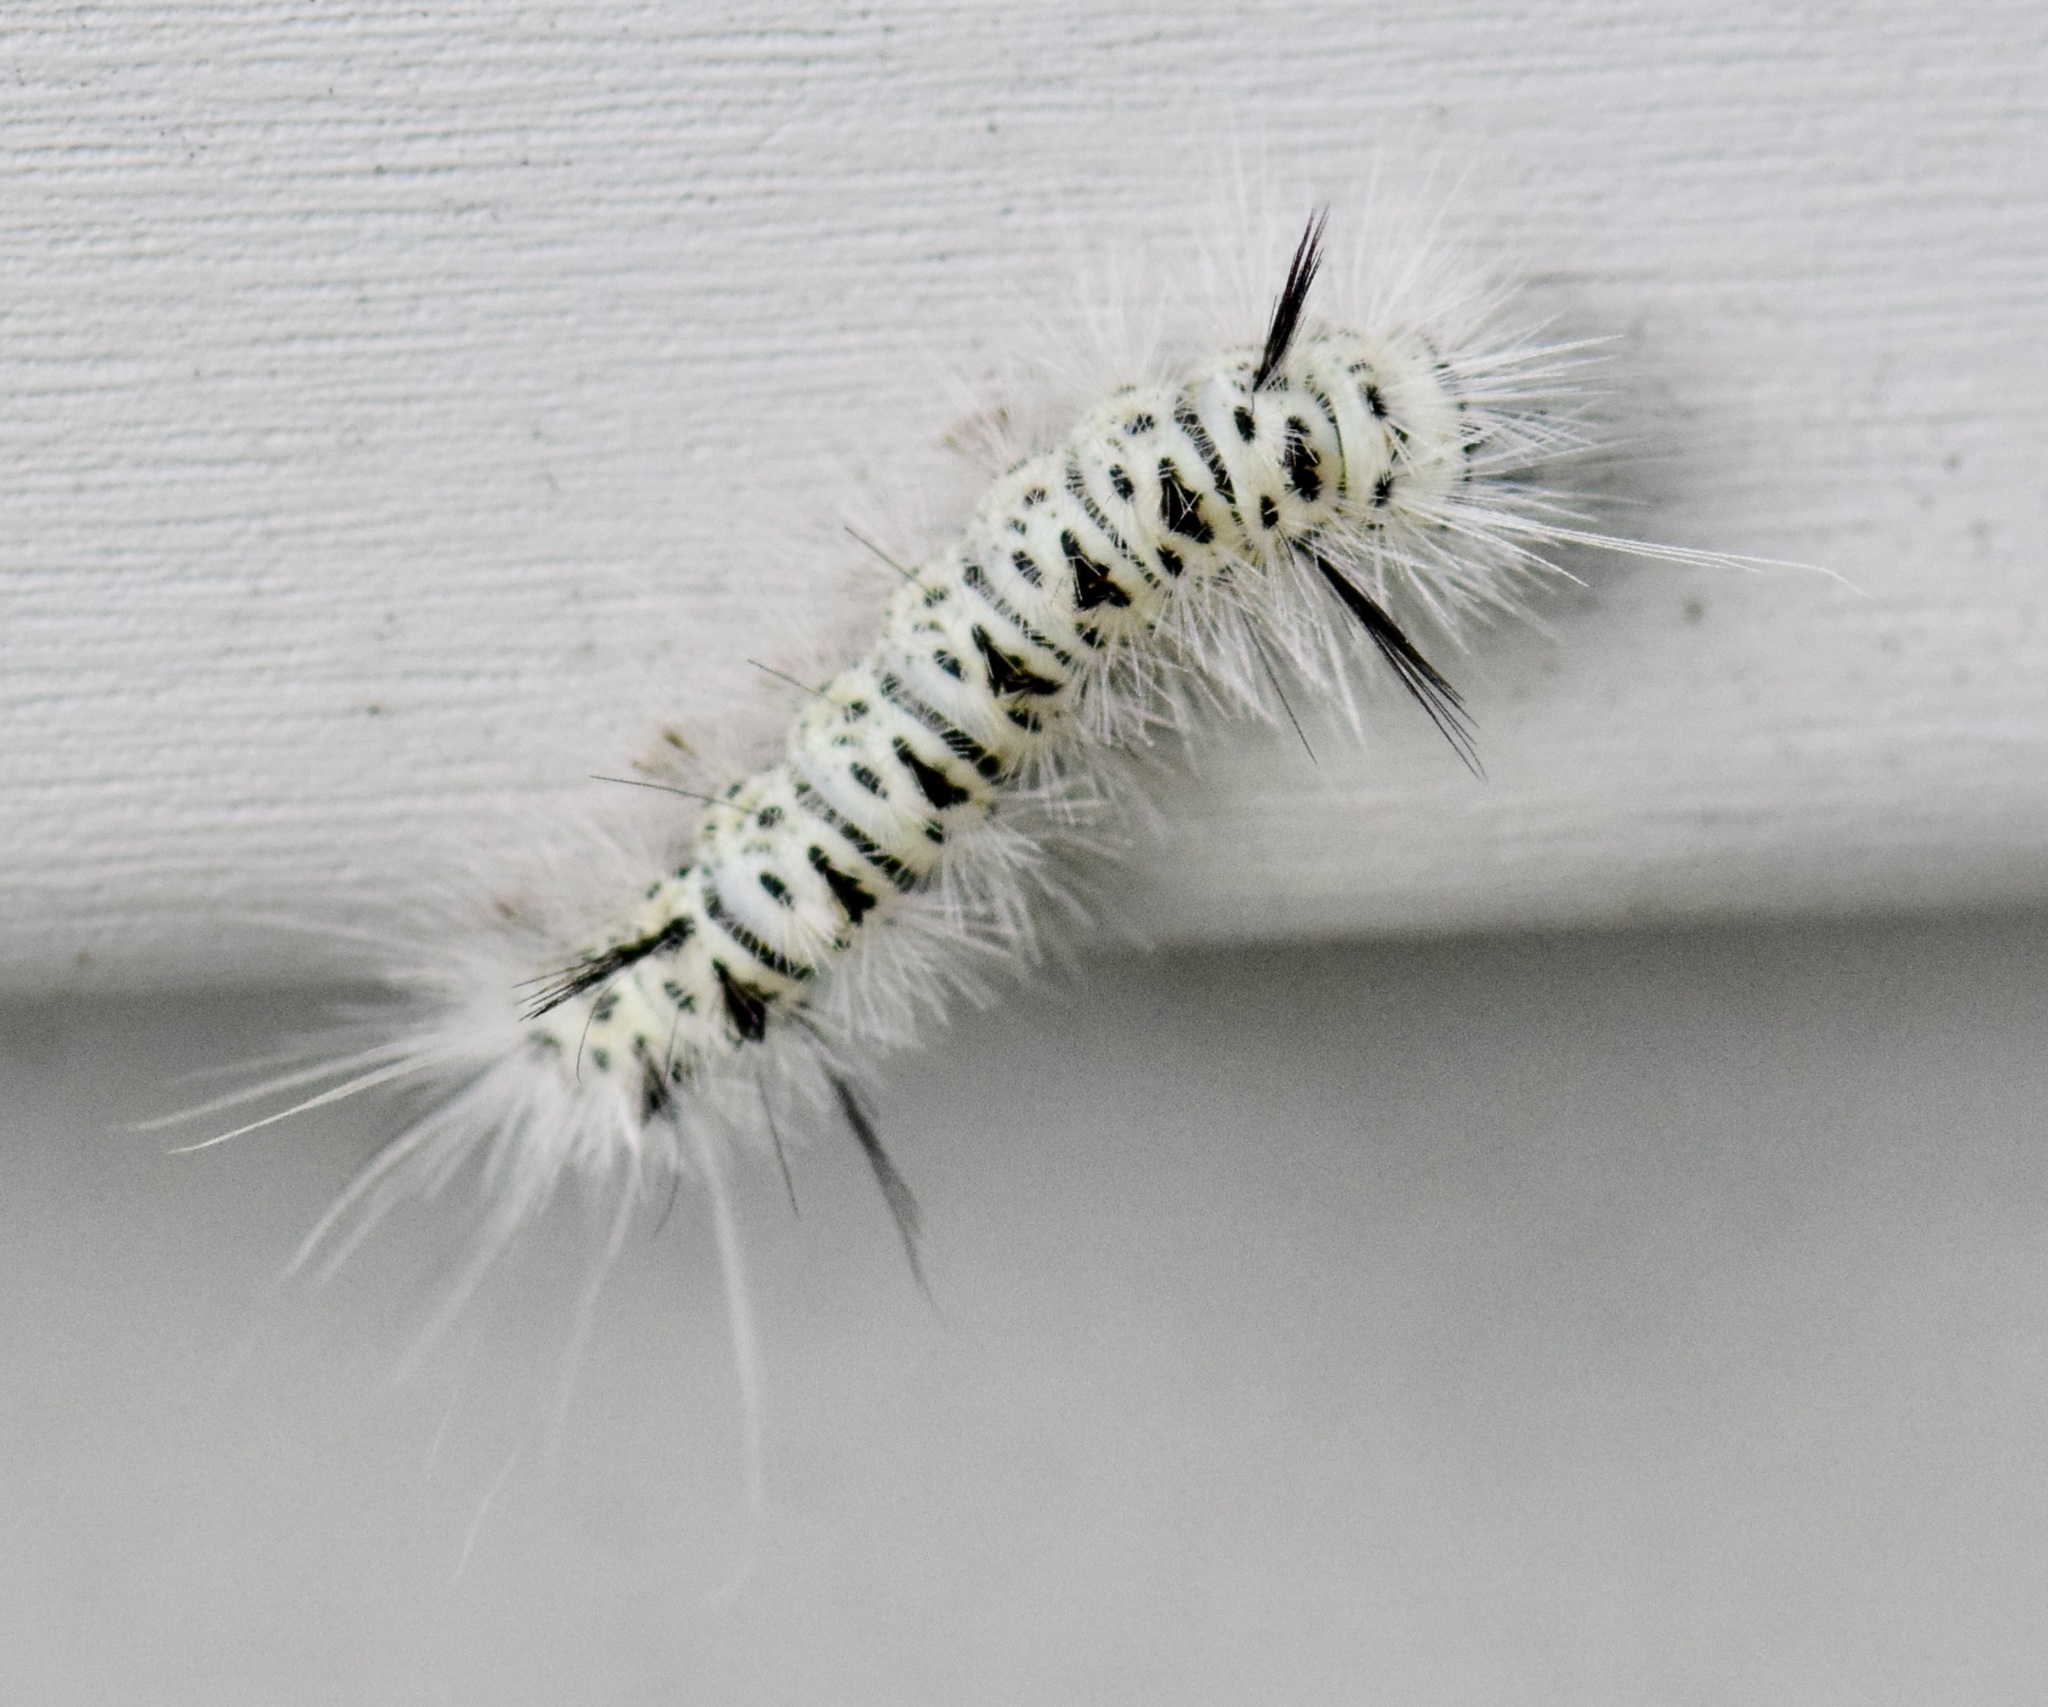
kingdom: Animalia
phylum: Arthropoda
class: Insecta
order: Lepidoptera
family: Erebidae
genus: Lophocampa
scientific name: Lophocampa caryae
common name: Hickory tussock moth
